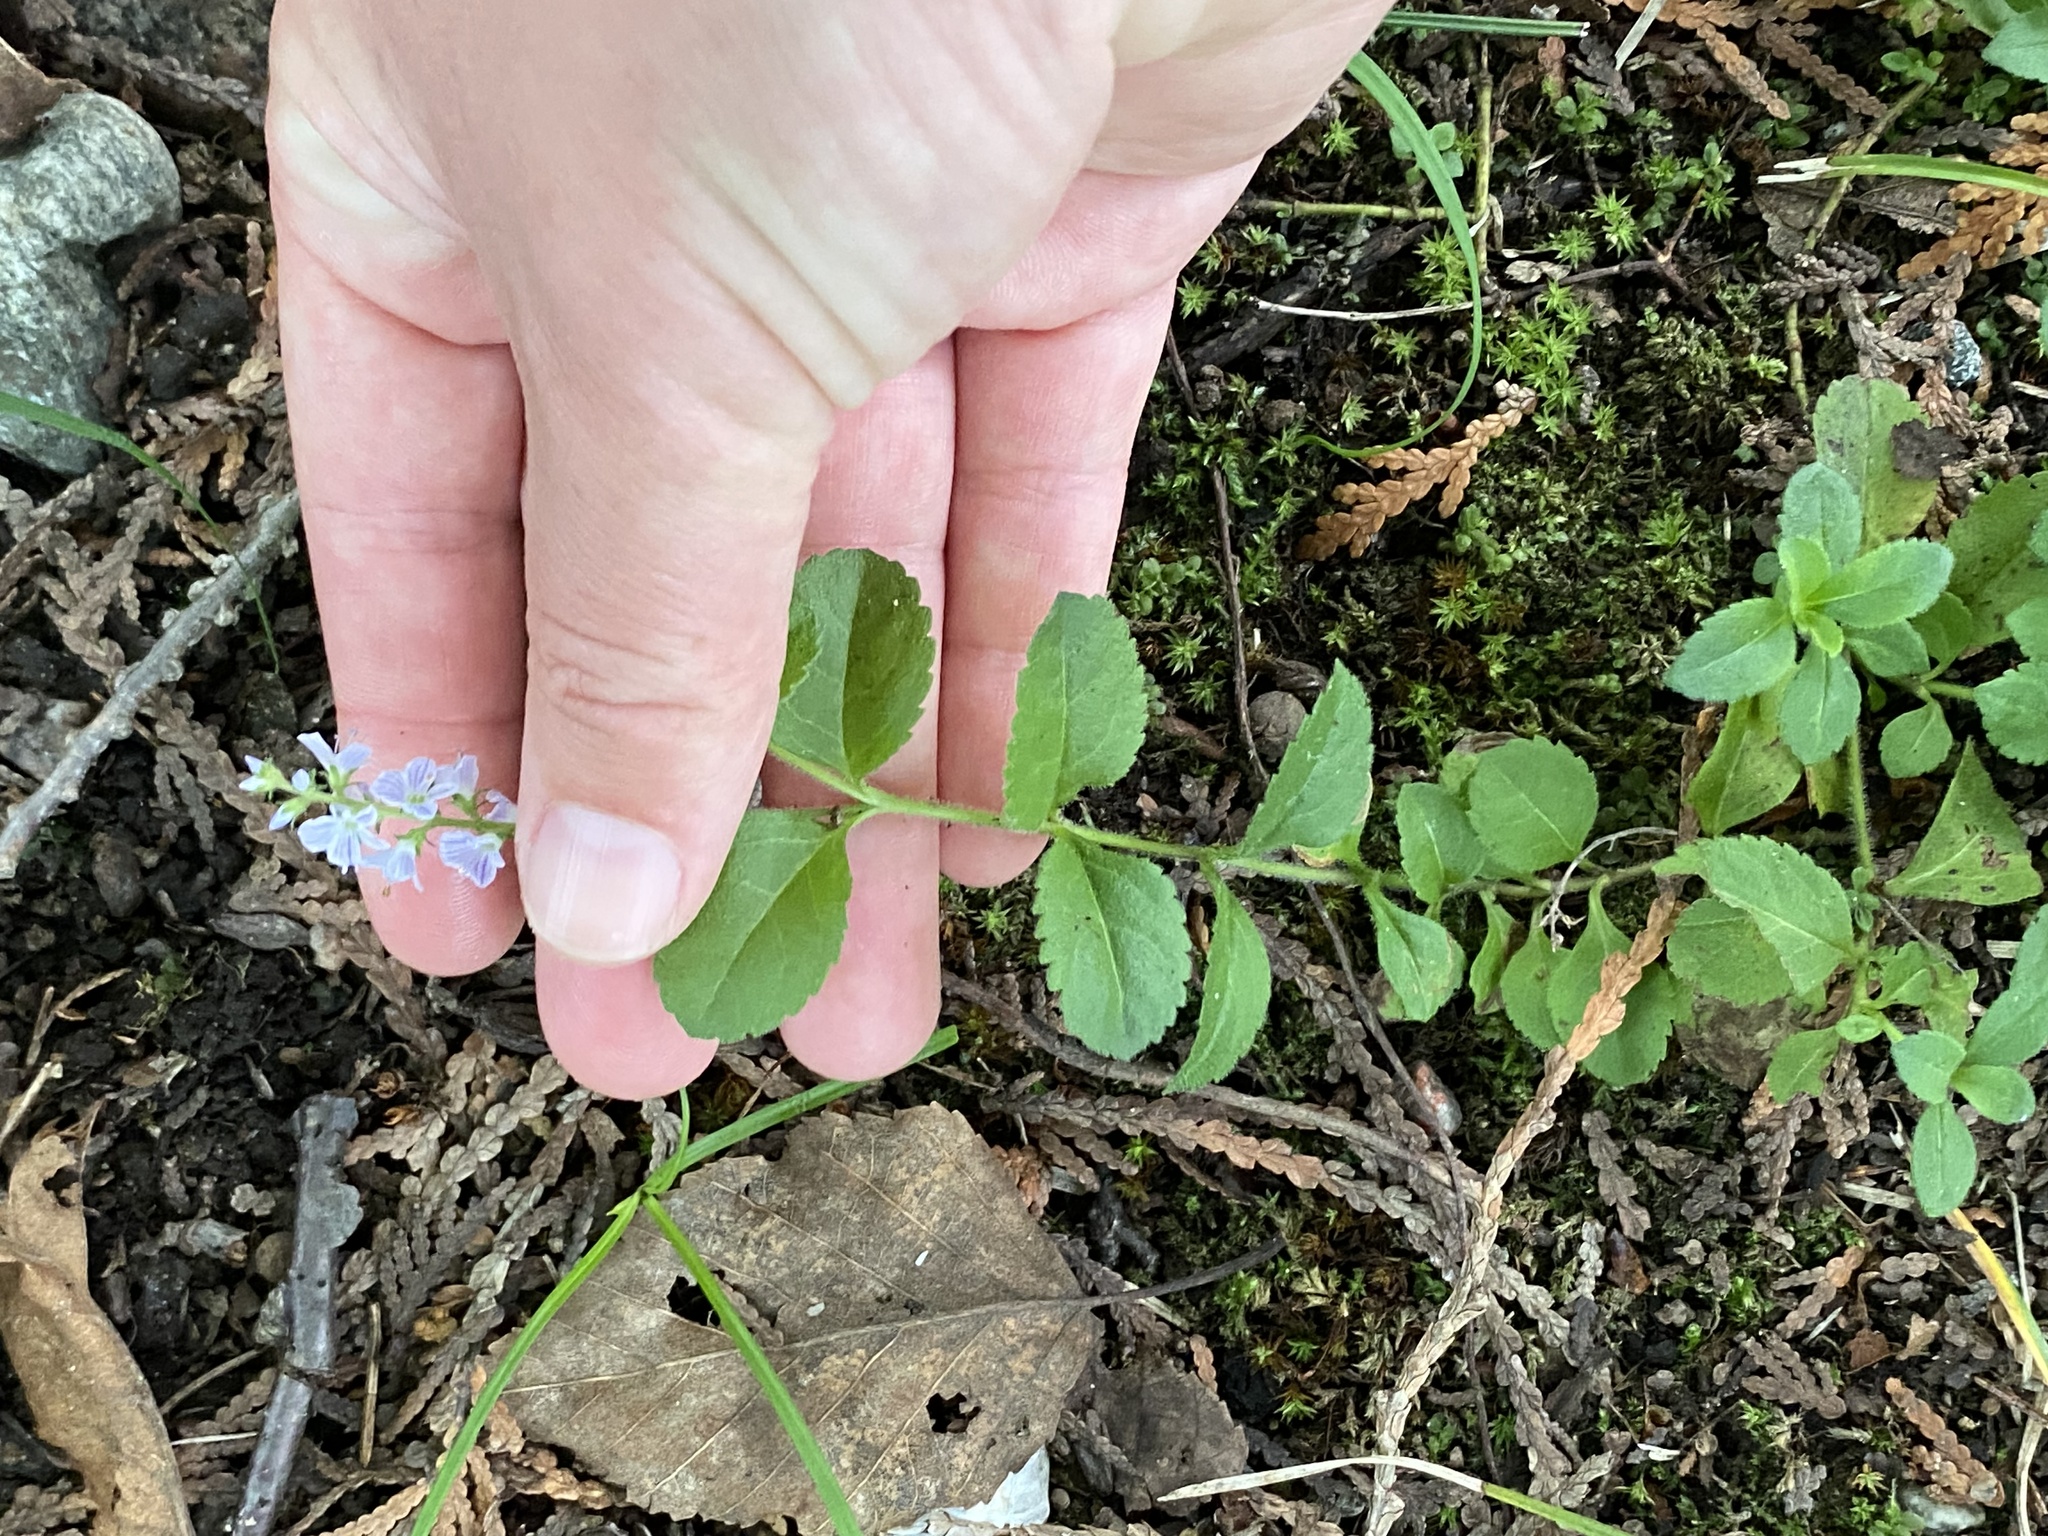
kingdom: Plantae
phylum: Tracheophyta
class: Magnoliopsida
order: Lamiales
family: Plantaginaceae
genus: Veronica
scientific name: Veronica officinalis
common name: Common speedwell
